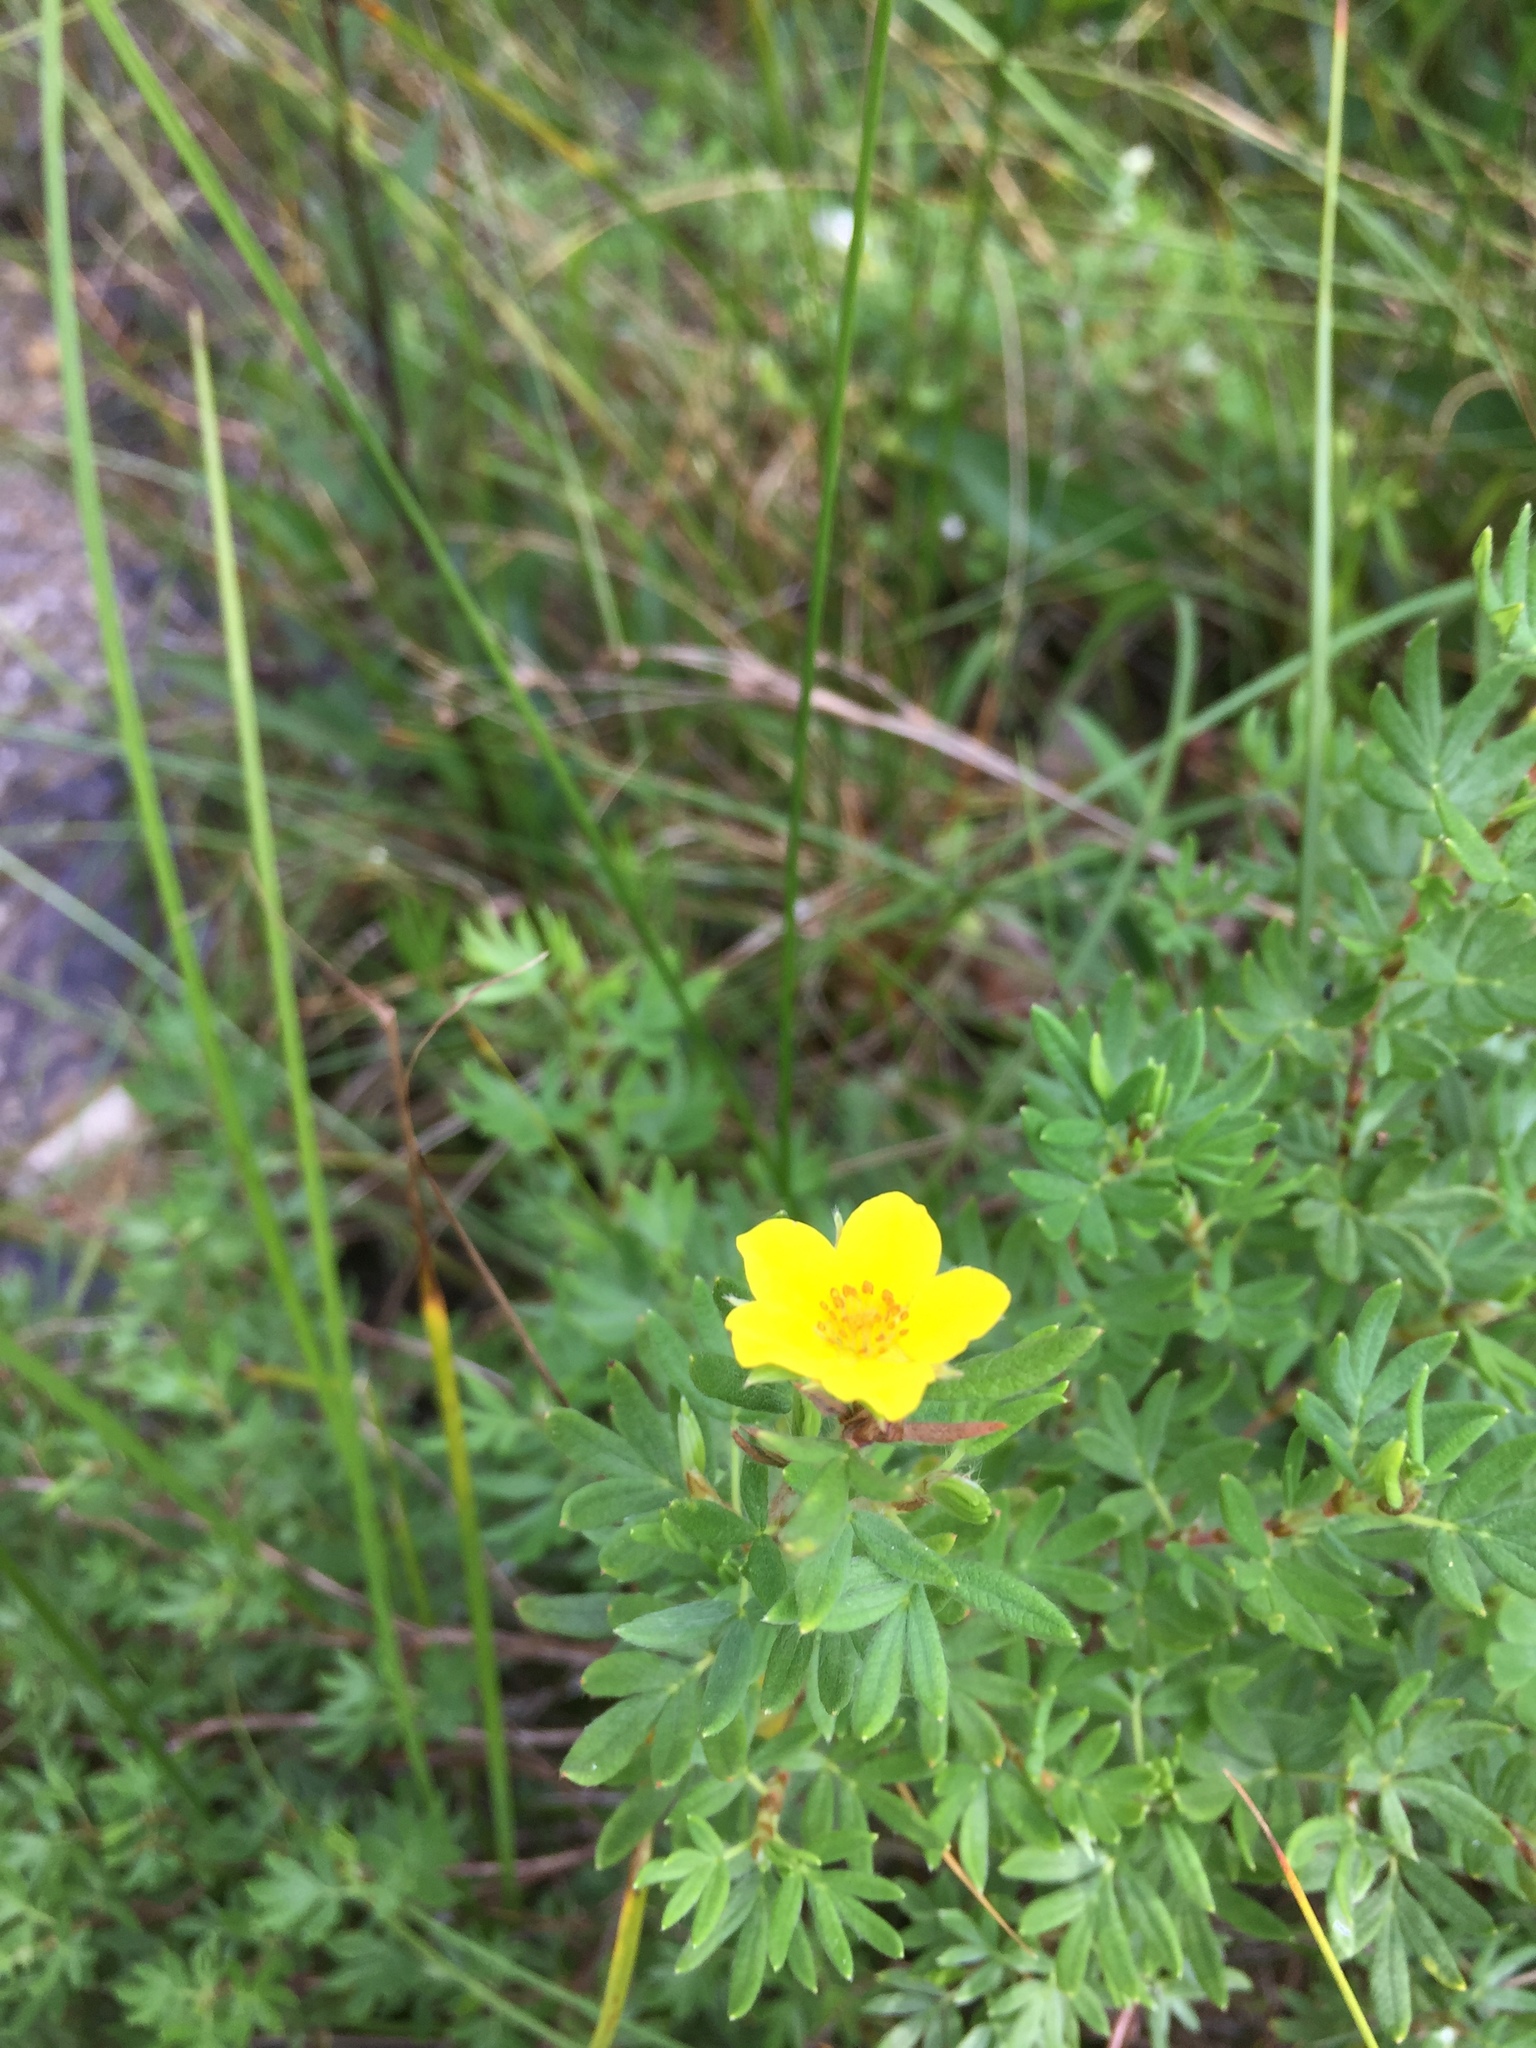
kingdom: Plantae
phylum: Tracheophyta
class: Magnoliopsida
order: Rosales
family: Rosaceae
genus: Dasiphora
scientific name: Dasiphora fruticosa
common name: Shrubby cinquefoil
